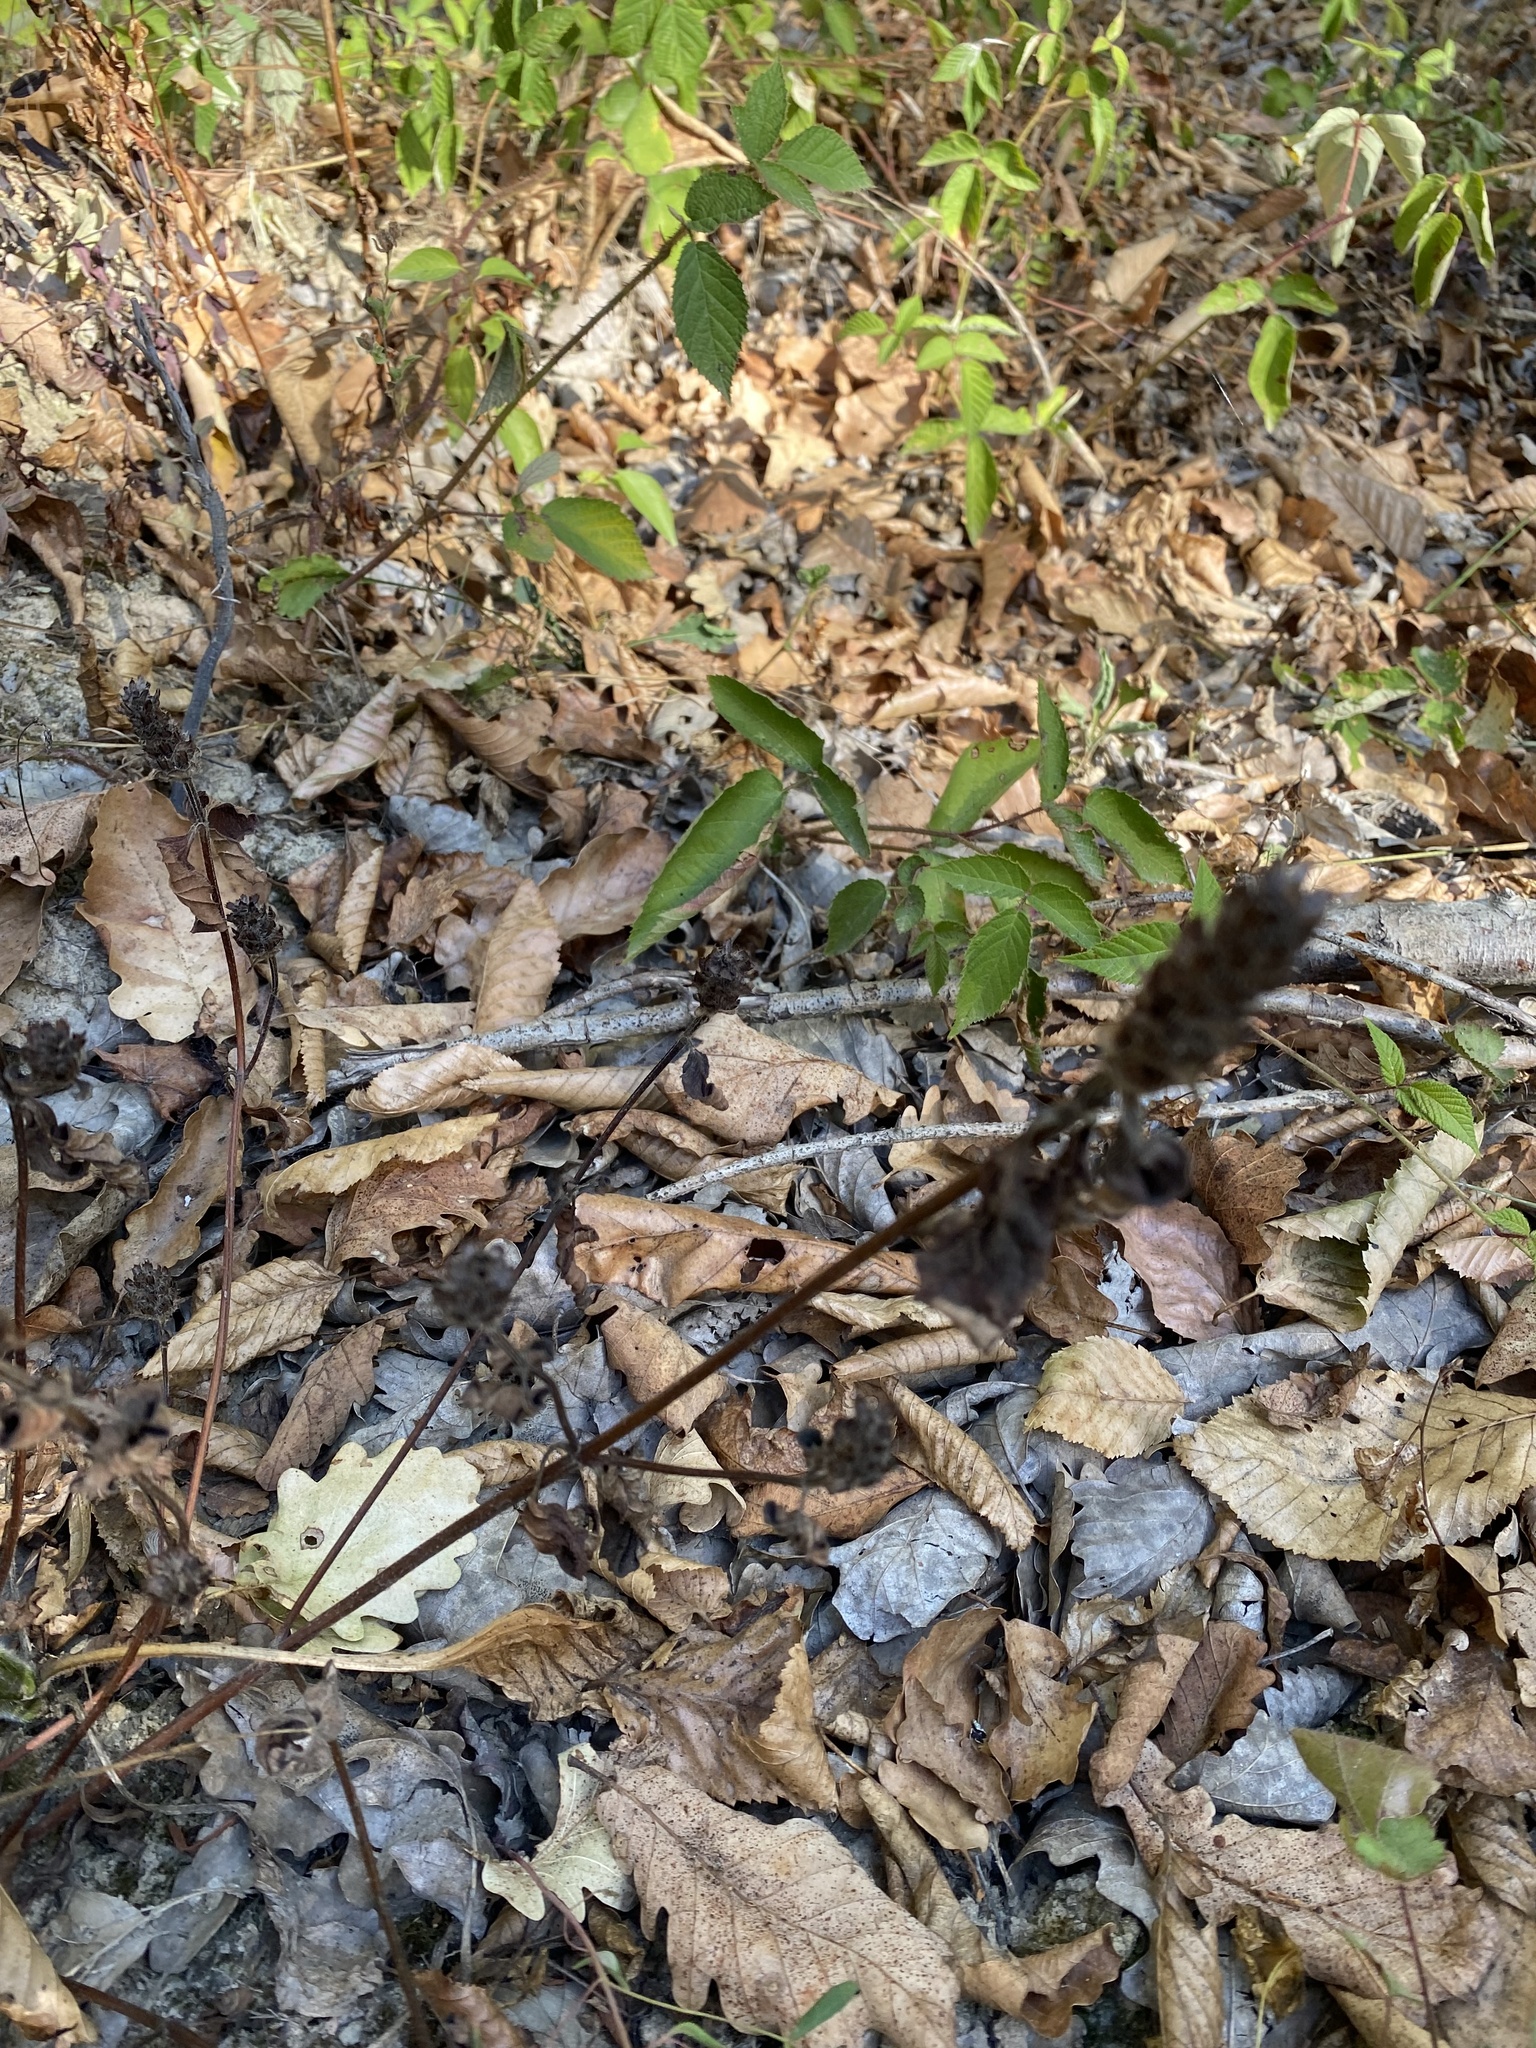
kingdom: Plantae
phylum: Tracheophyta
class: Magnoliopsida
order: Lamiales
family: Lamiaceae
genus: Prunella
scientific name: Prunella vulgaris
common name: Heal-all
